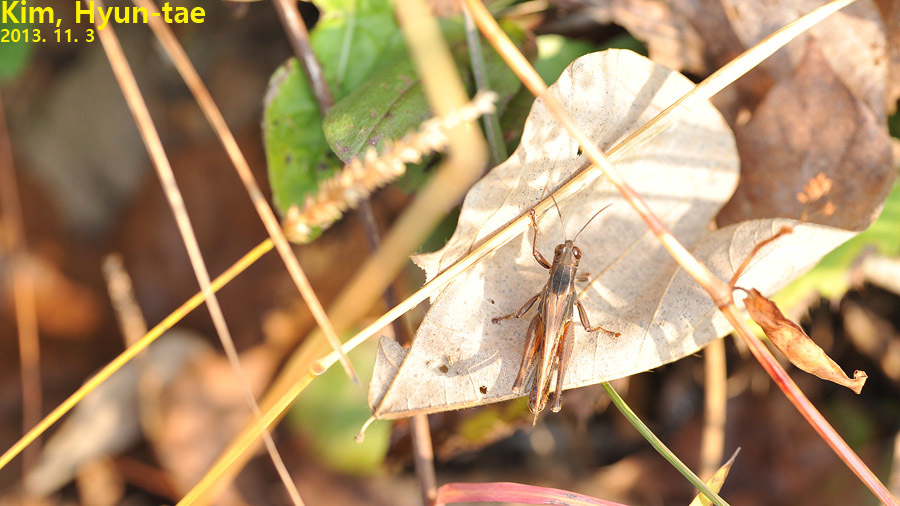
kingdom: Animalia
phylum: Arthropoda
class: Insecta
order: Orthoptera
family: Acrididae
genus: Shirakiacris
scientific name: Shirakiacris shirakii
